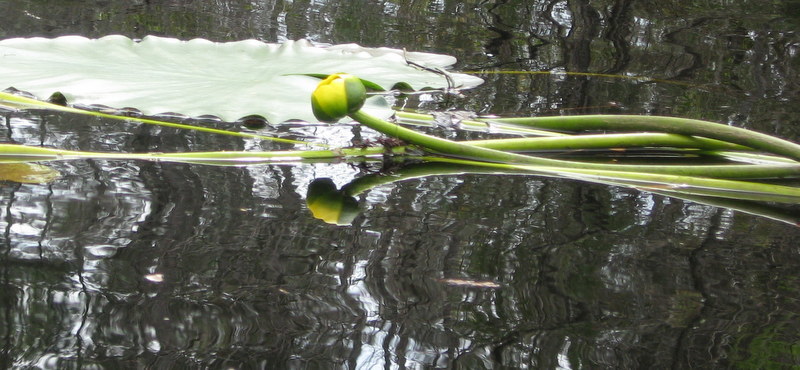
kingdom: Plantae
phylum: Tracheophyta
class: Magnoliopsida
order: Nymphaeales
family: Nymphaeaceae
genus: Nuphar
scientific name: Nuphar advena
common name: Spatter-dock
